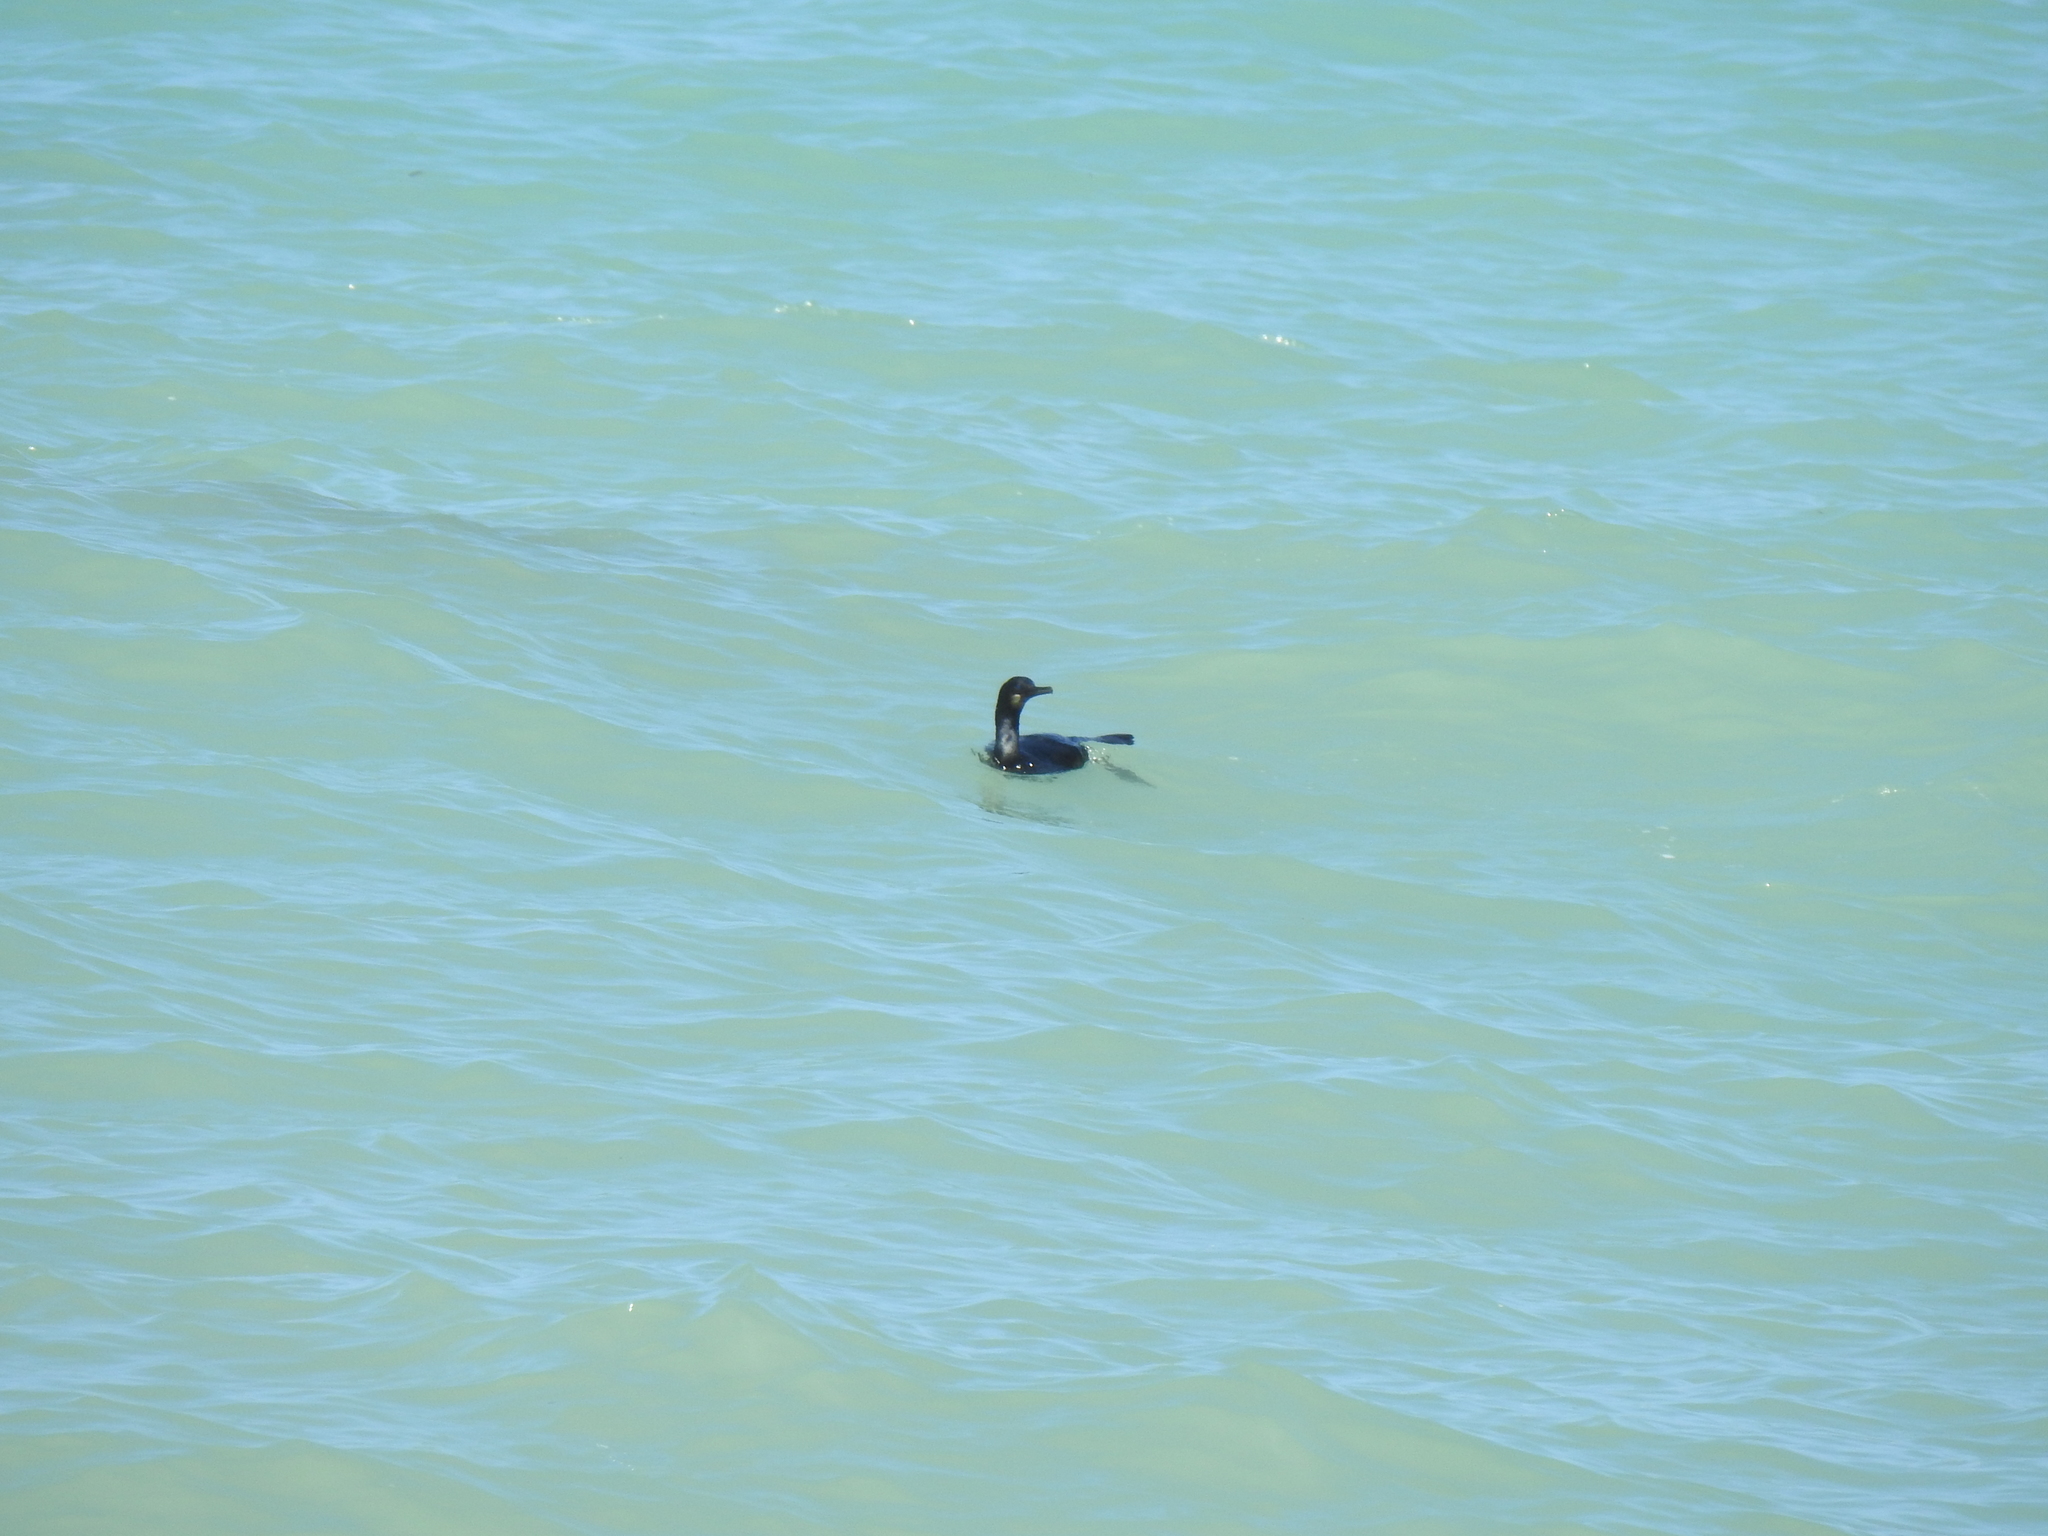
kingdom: Animalia
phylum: Chordata
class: Aves
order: Suliformes
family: Phalacrocoracidae
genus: Urile
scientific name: Urile penicillatus
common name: Brandt's cormorant
